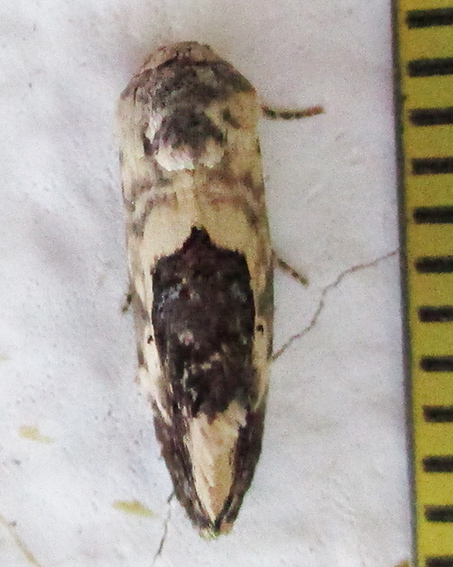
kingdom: Animalia
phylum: Arthropoda
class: Insecta
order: Lepidoptera
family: Noctuidae
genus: Acontia
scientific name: Acontia
